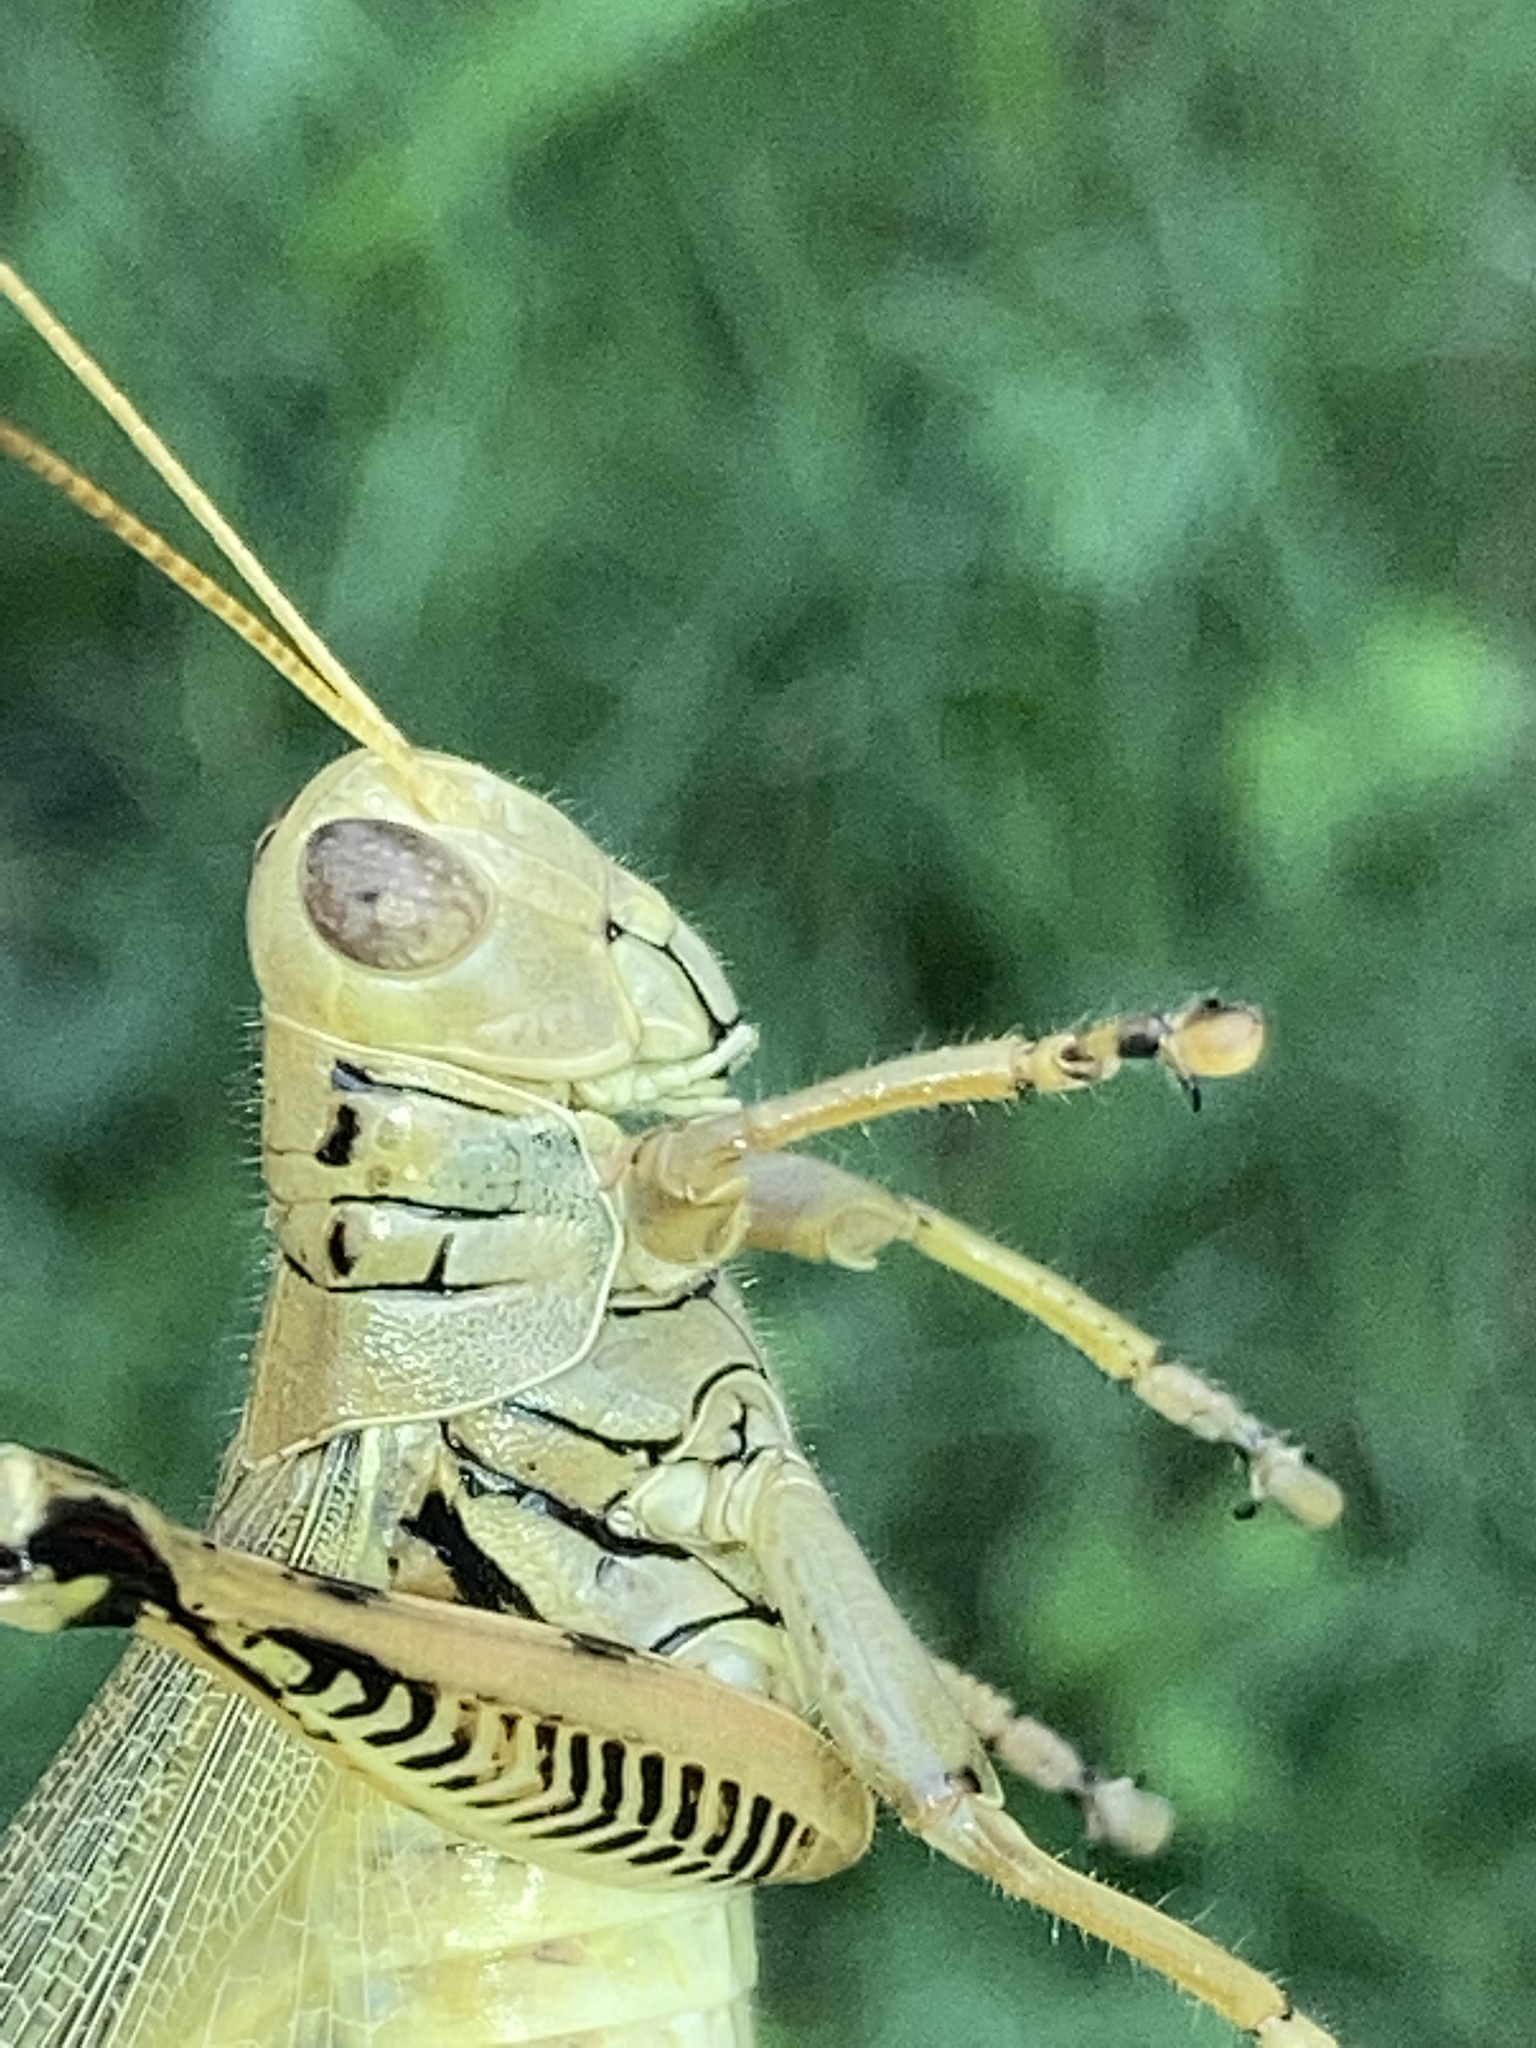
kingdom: Animalia
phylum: Arthropoda
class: Insecta
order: Orthoptera
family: Acrididae
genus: Melanoplus
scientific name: Melanoplus differentialis
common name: Differential grasshopper
